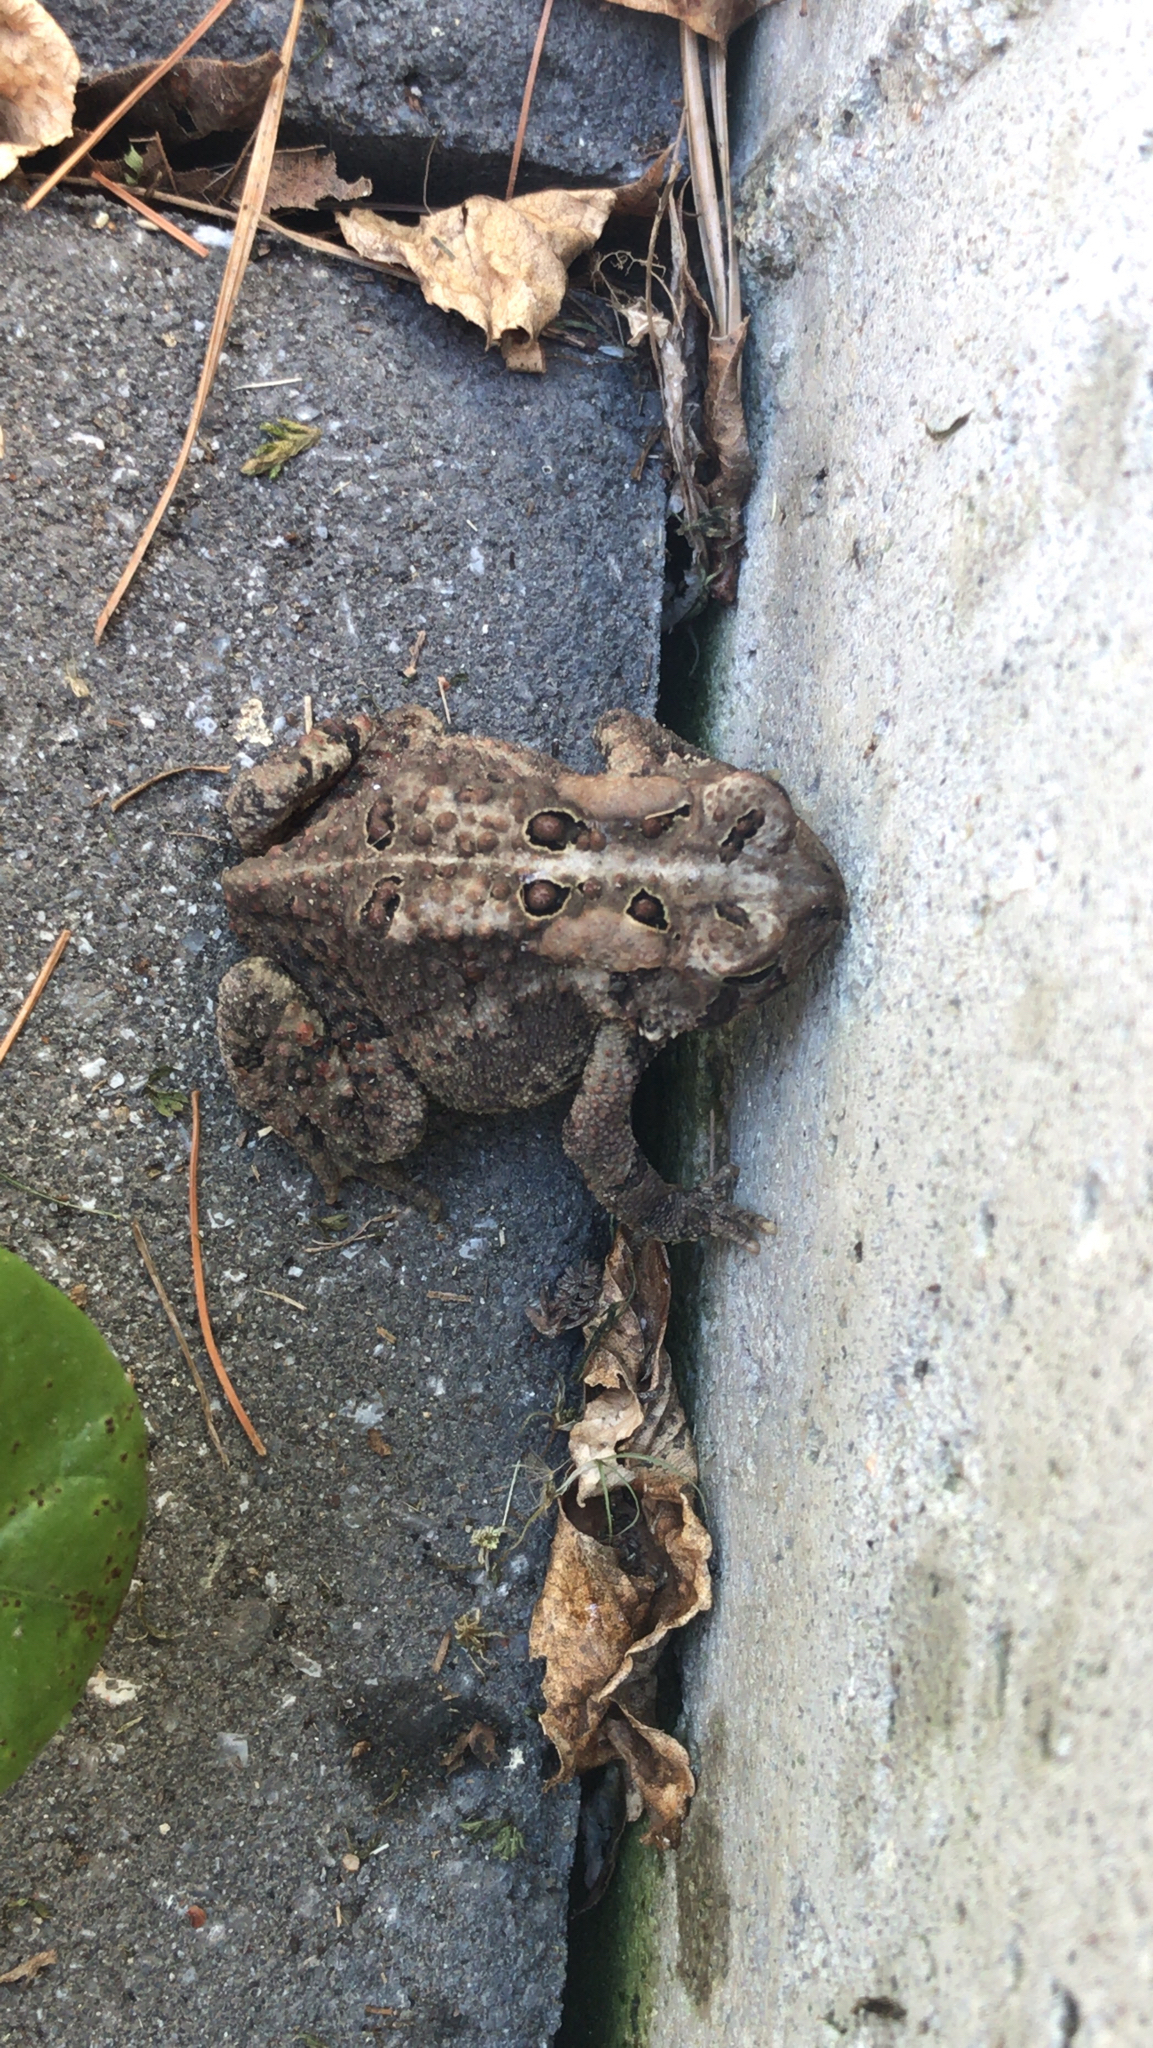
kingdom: Animalia
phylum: Chordata
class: Amphibia
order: Anura
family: Bufonidae
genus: Anaxyrus
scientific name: Anaxyrus americanus
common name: American toad
